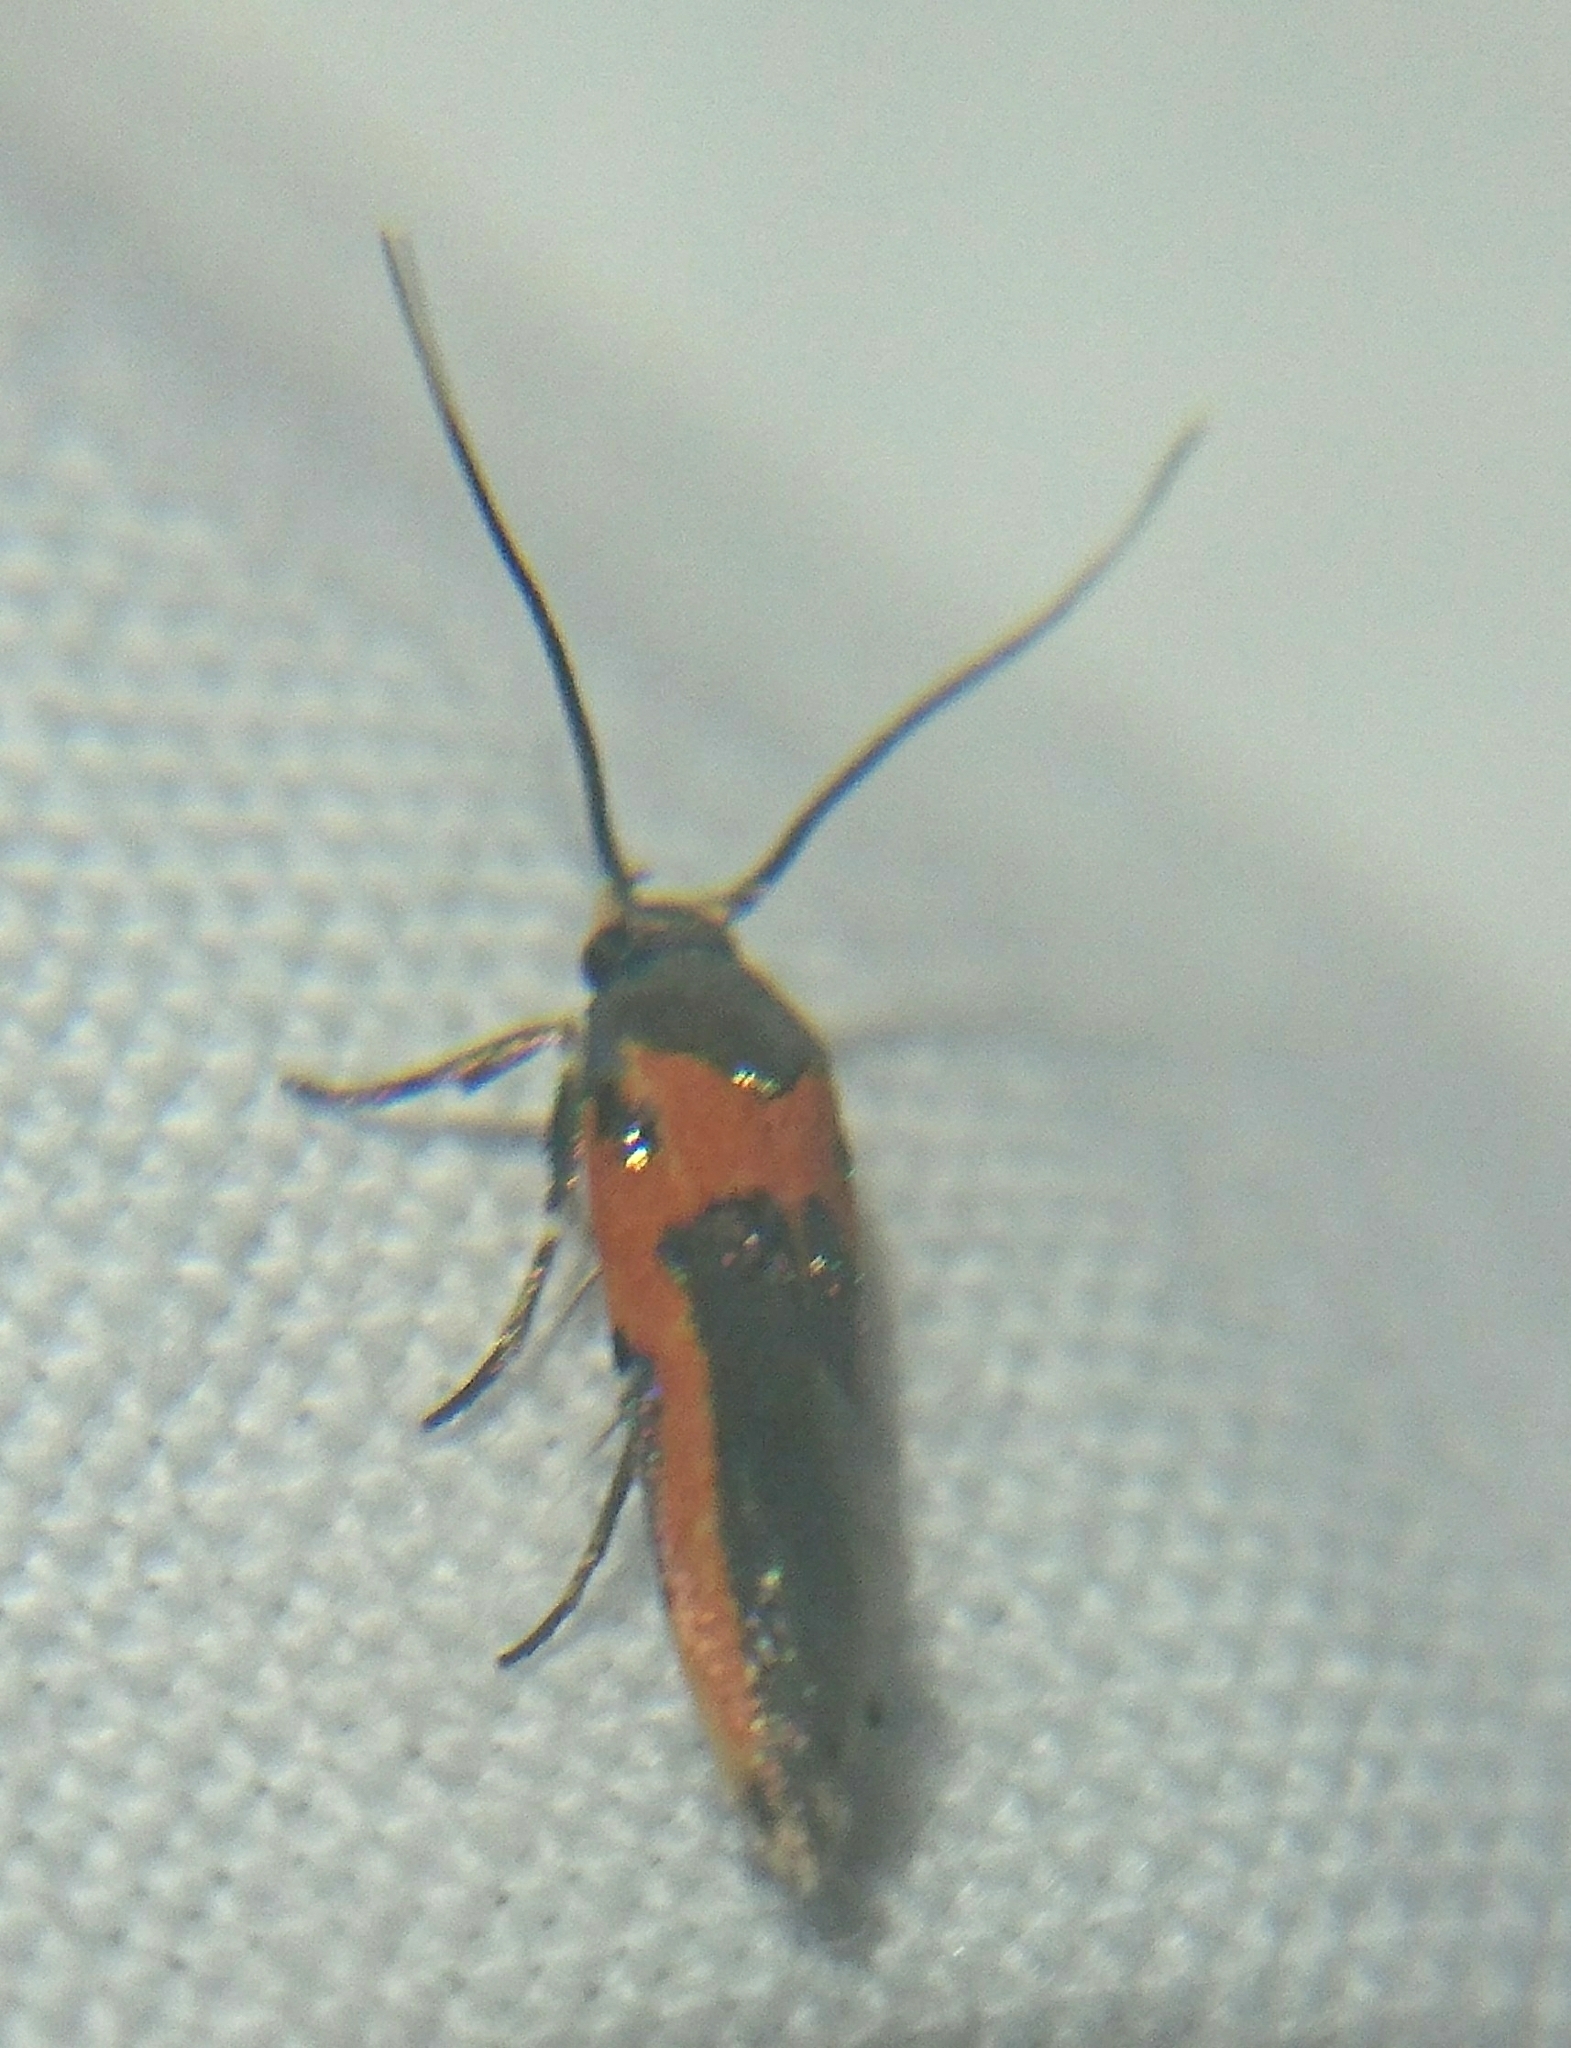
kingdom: Animalia
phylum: Arthropoda
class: Insecta
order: Lepidoptera
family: Cosmopterigidae
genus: Euclemensia
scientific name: Euclemensia bassettella
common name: Kermes scale moth
